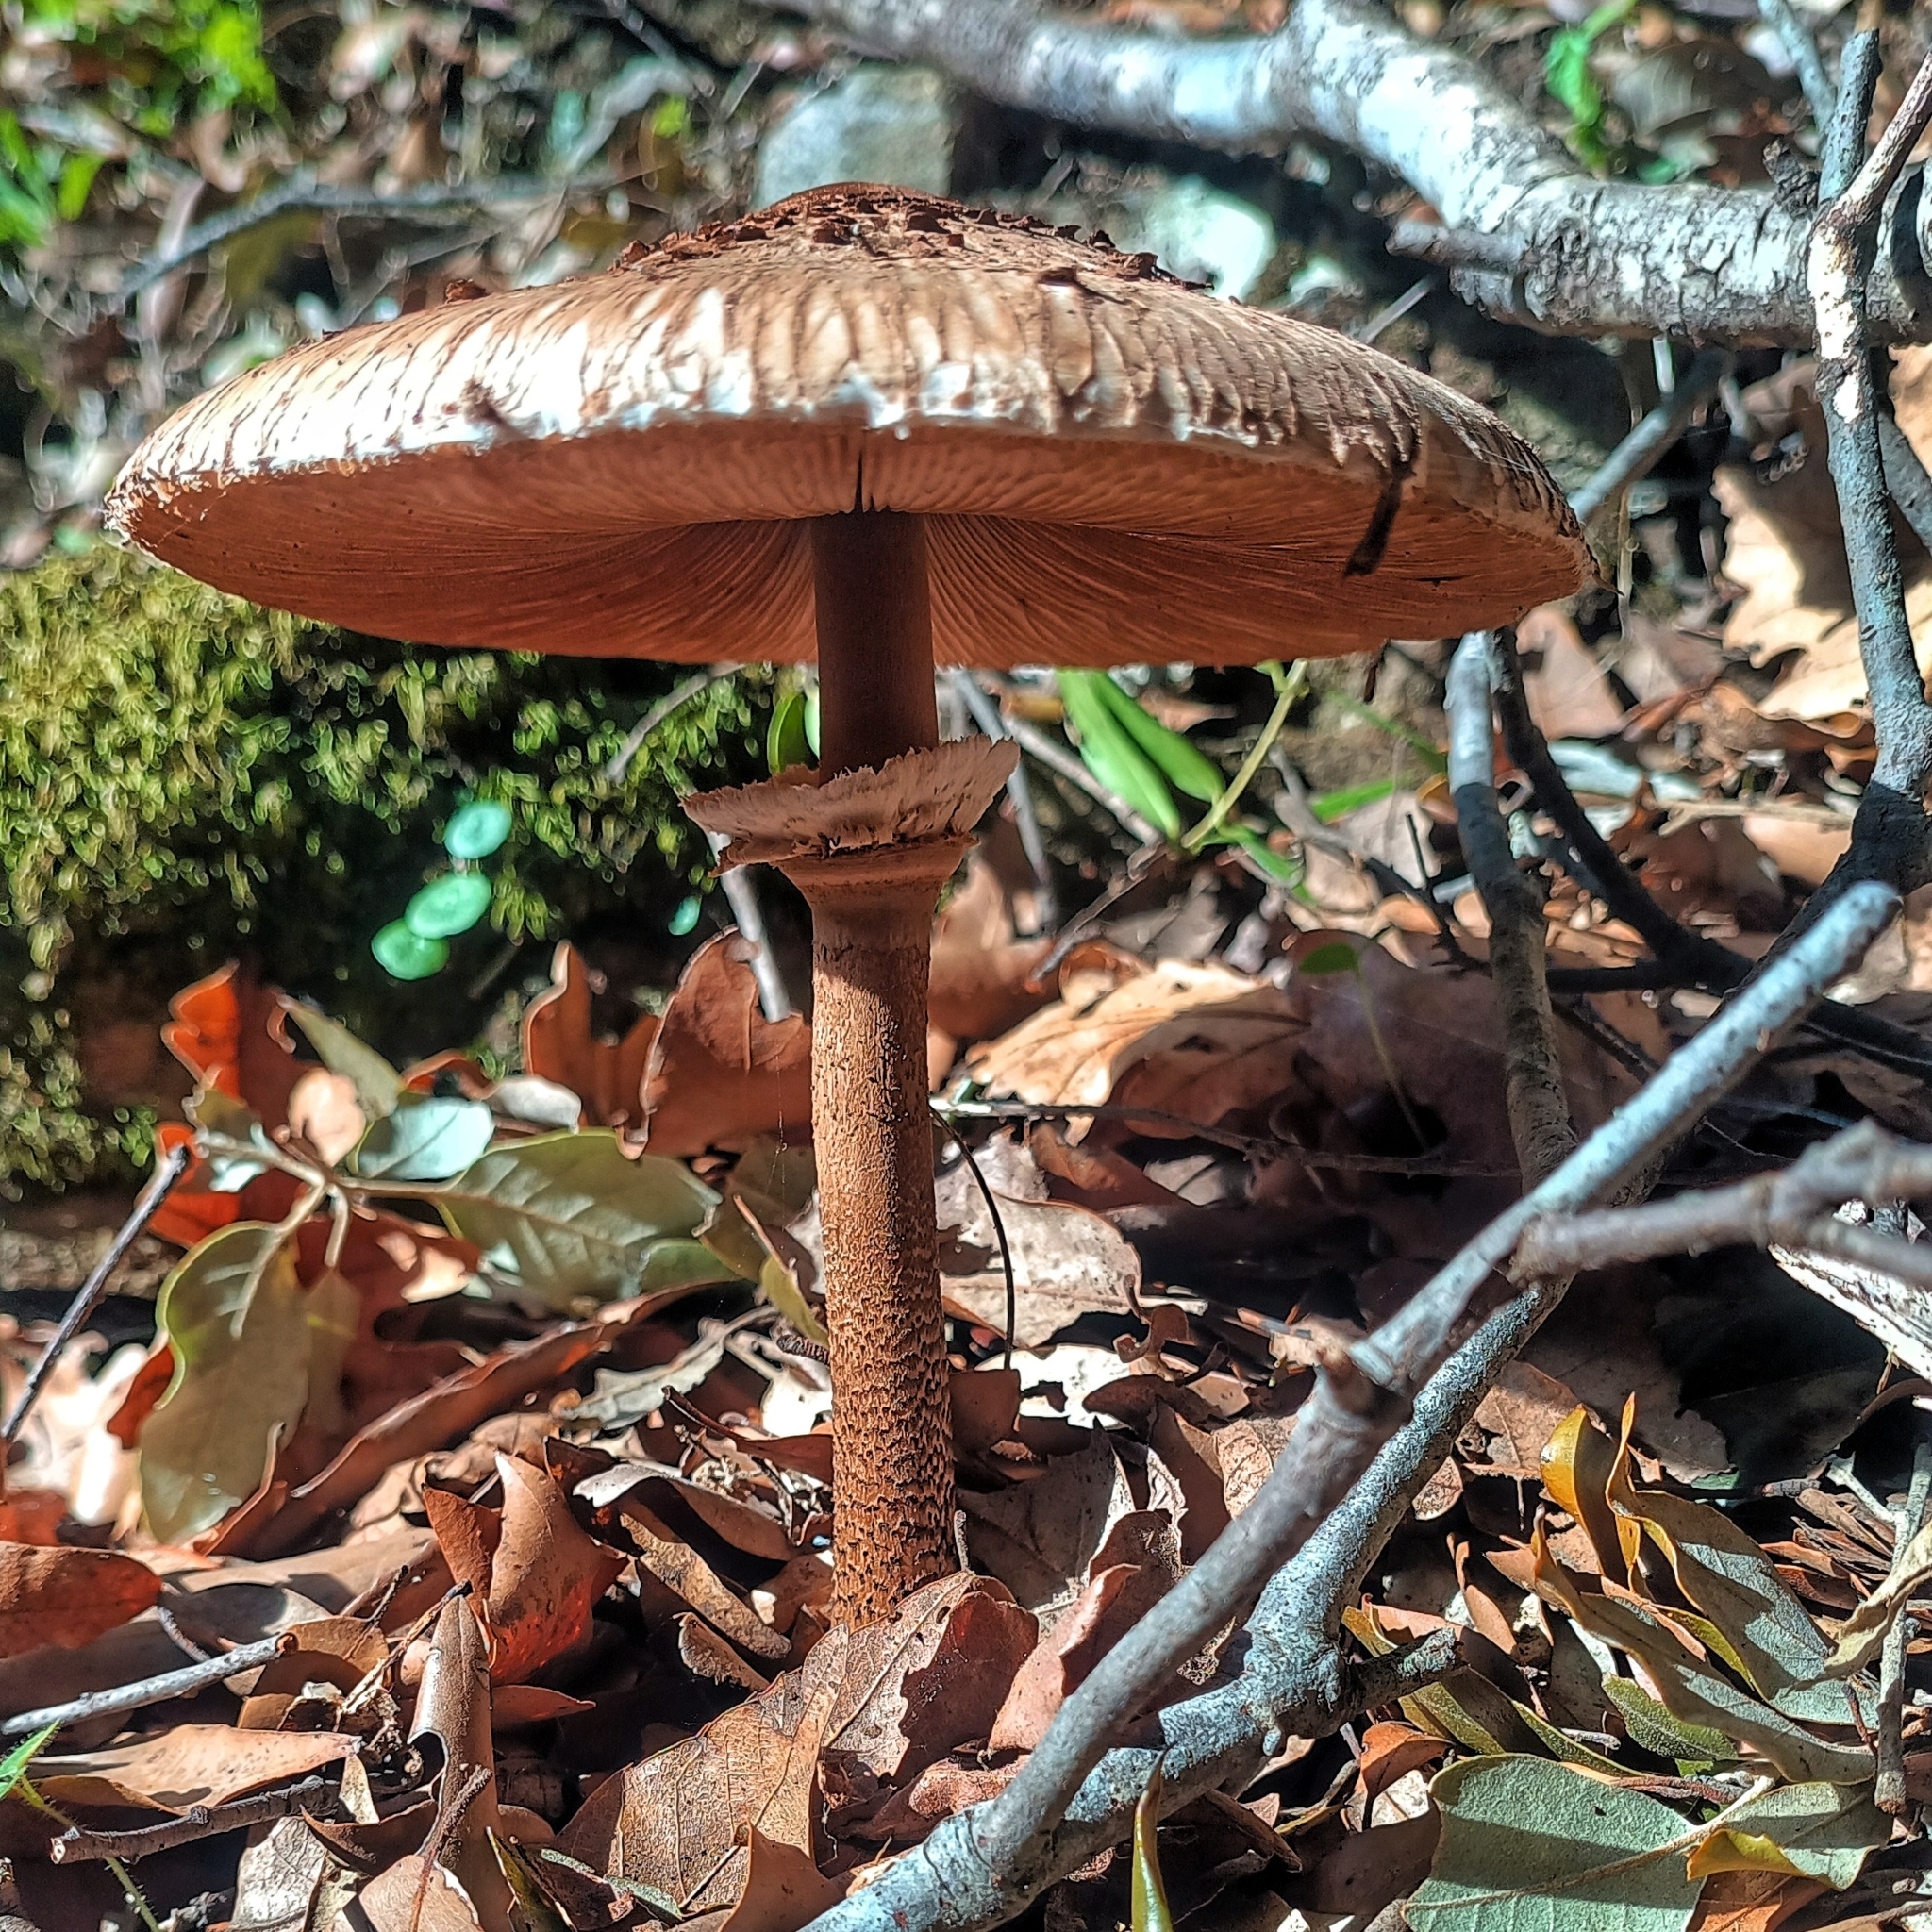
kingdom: Fungi
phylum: Basidiomycota
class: Agaricomycetes
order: Agaricales
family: Agaricaceae
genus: Macrolepiota
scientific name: Macrolepiota procera
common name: Parasol
